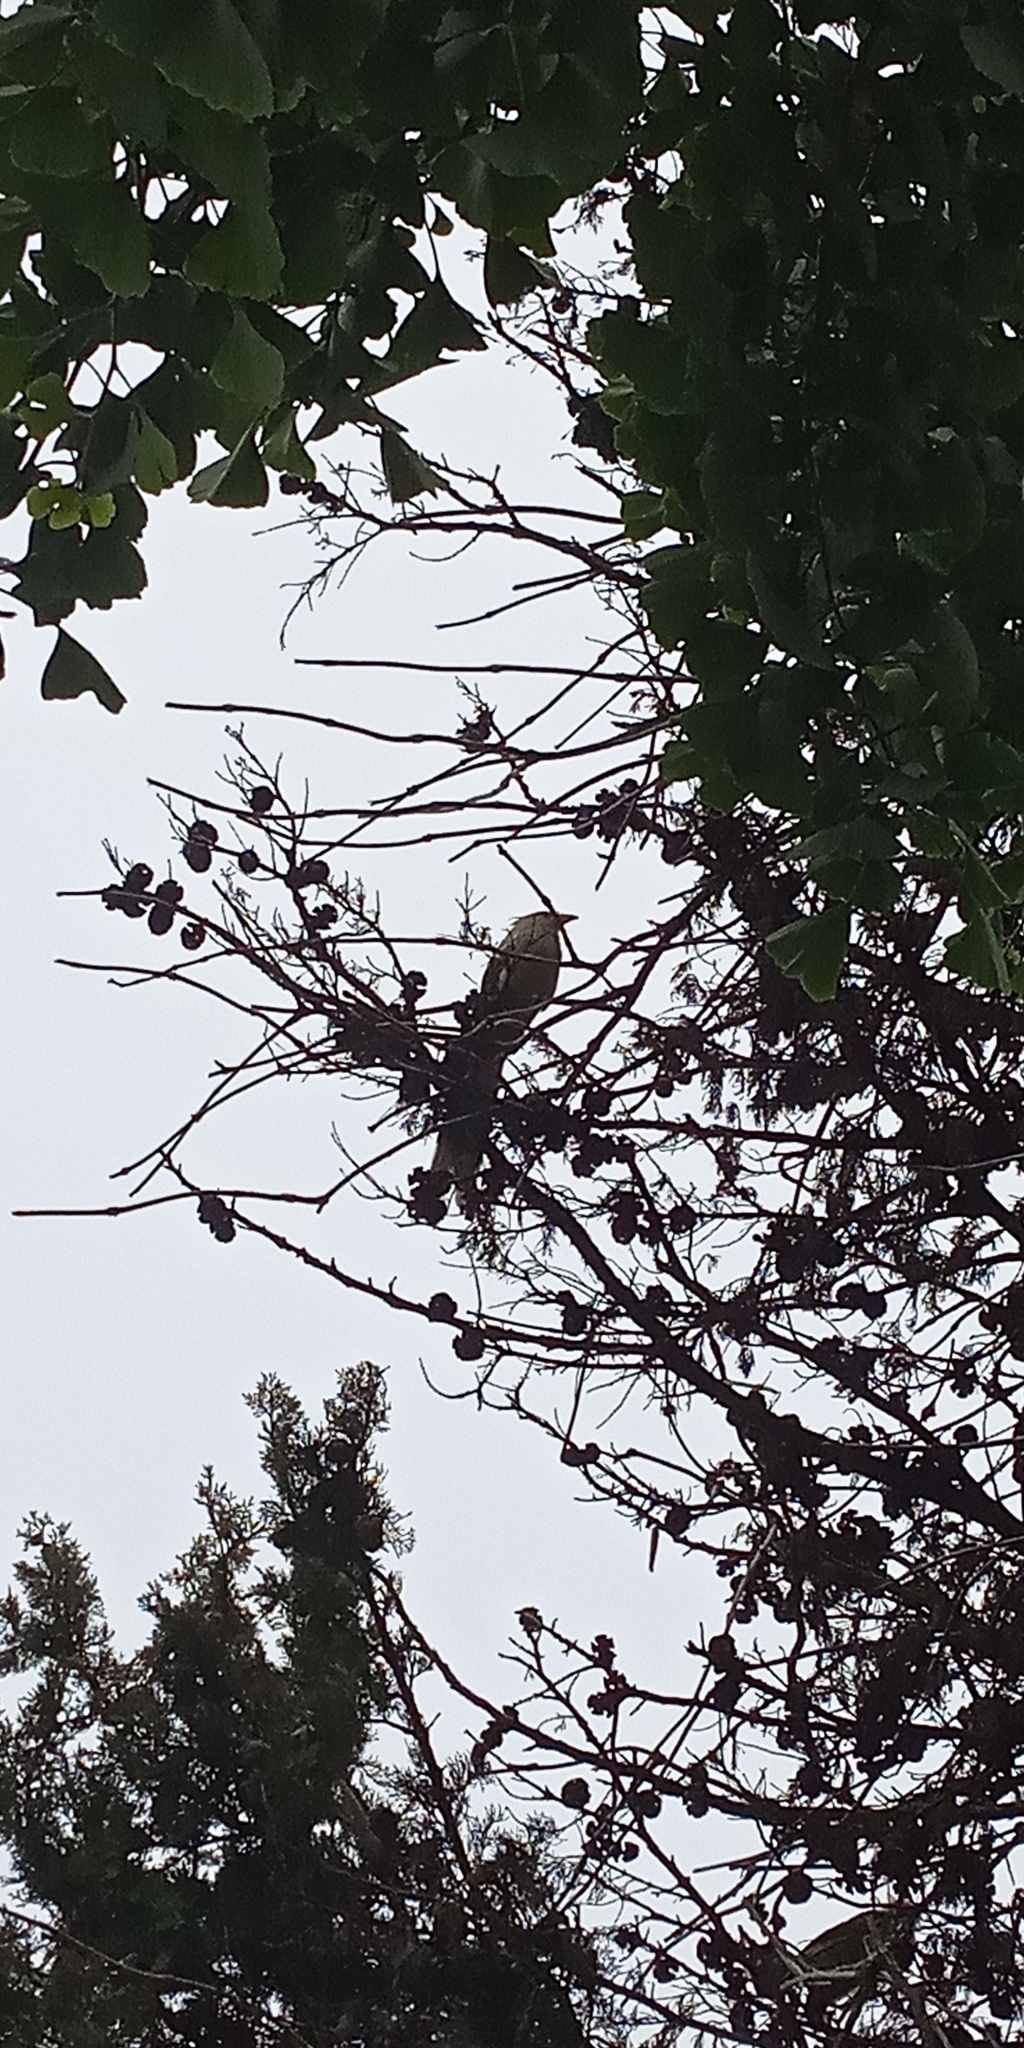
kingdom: Animalia
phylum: Chordata
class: Aves
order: Cuculiformes
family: Cuculidae
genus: Guira
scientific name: Guira guira
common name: Guira cuckoo
